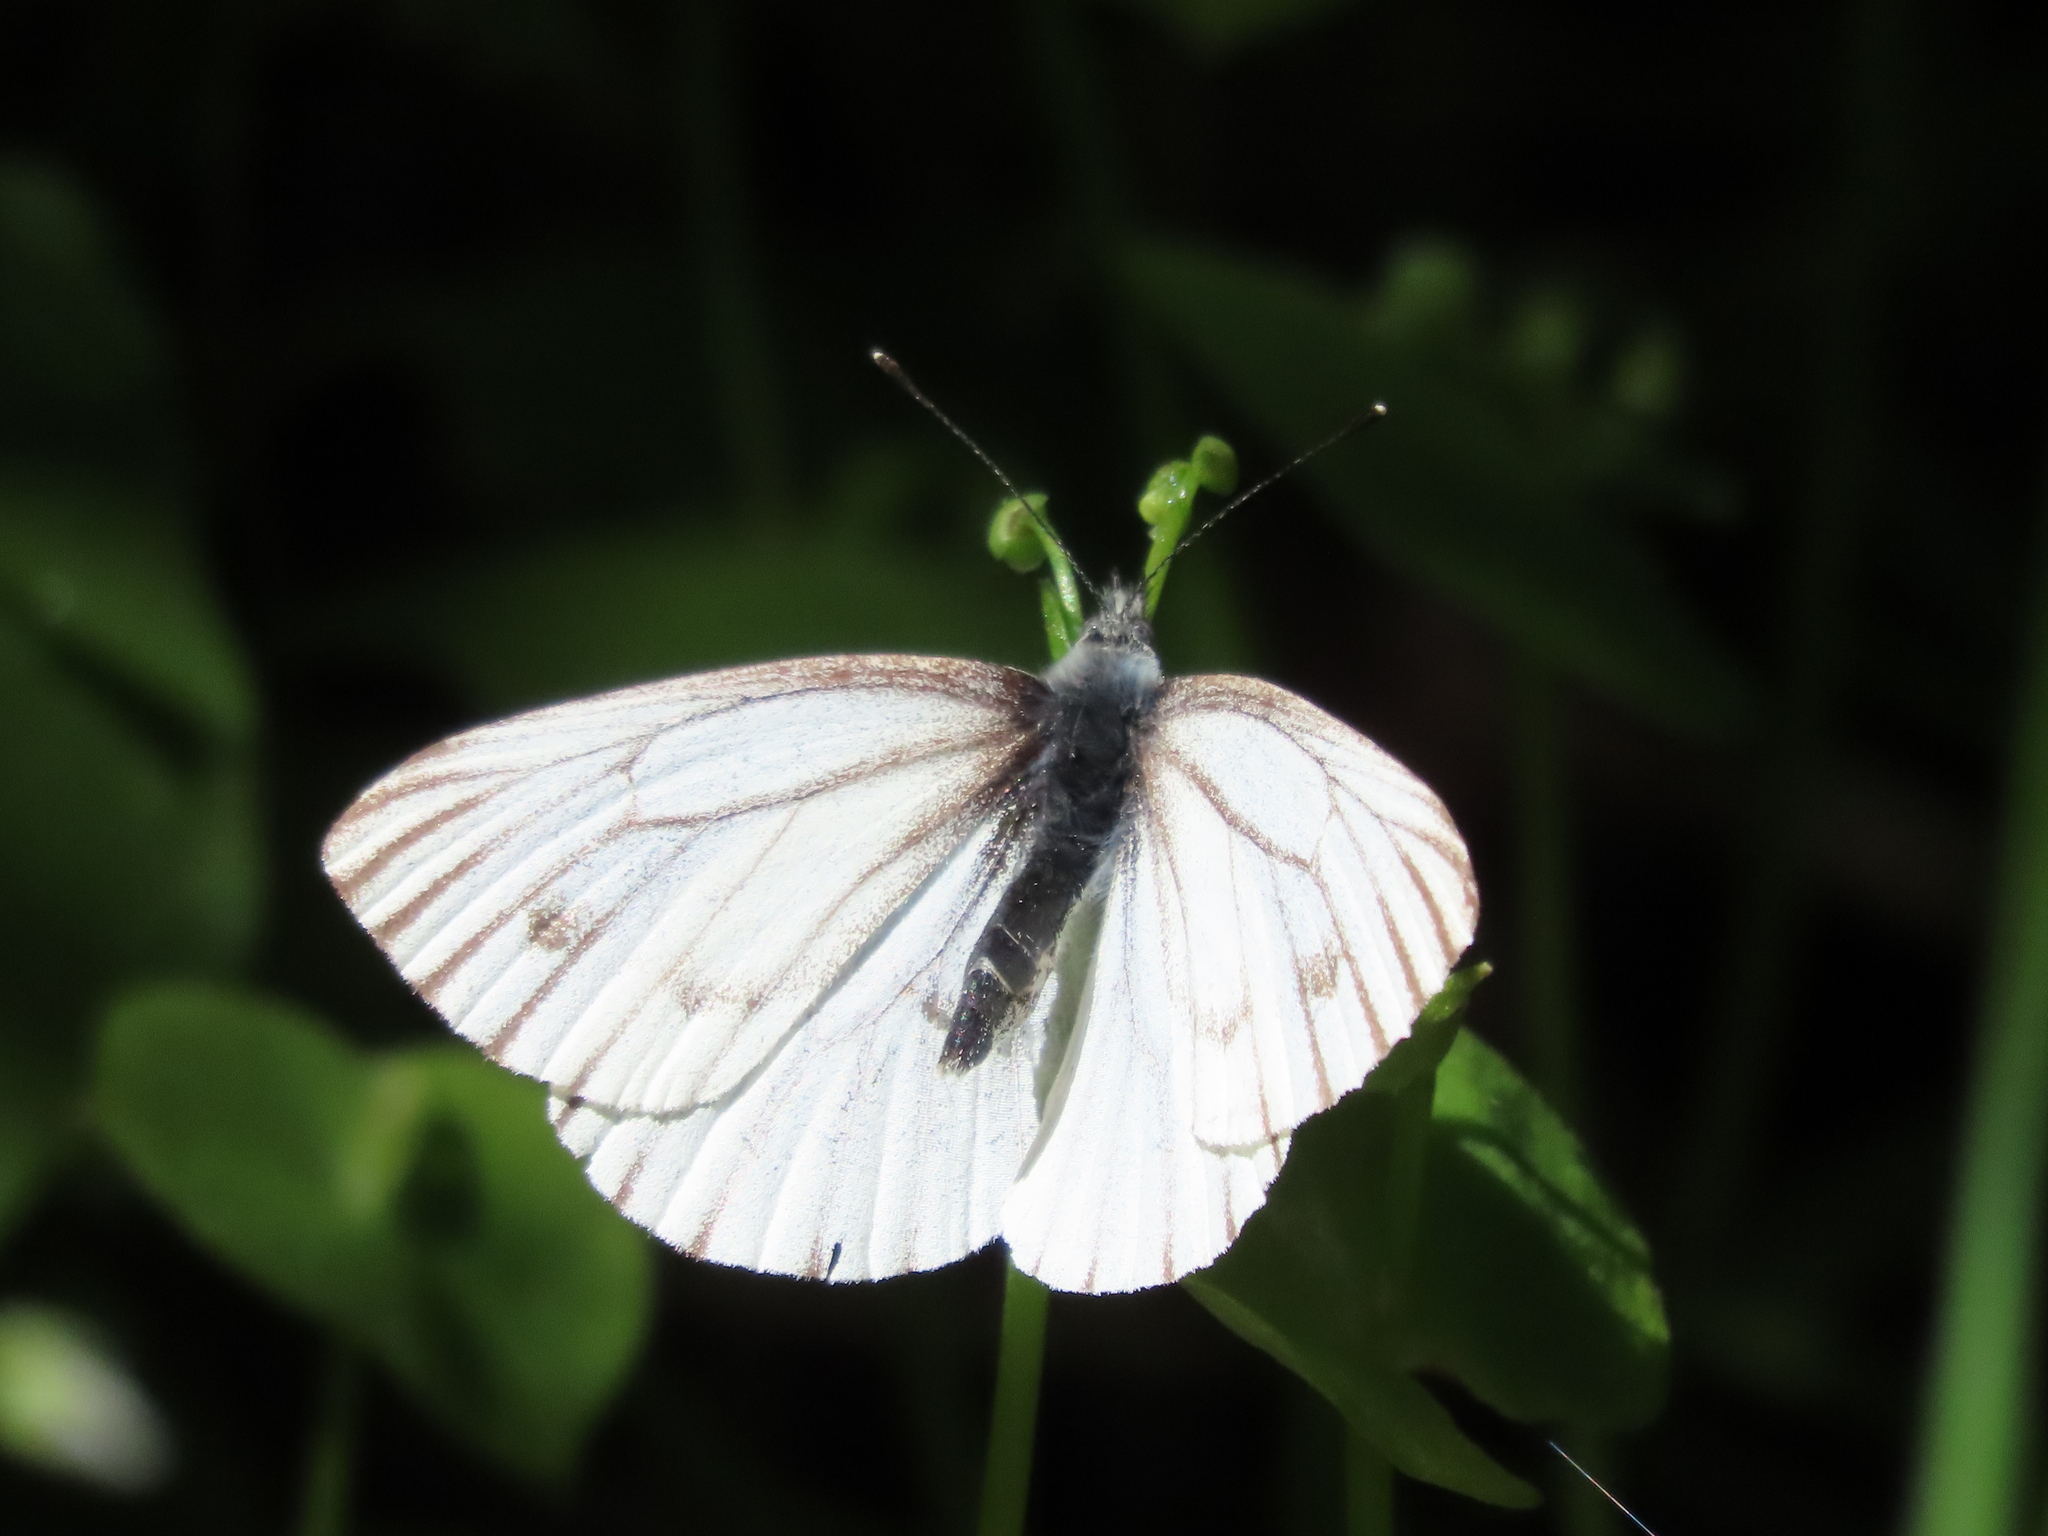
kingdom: Animalia
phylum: Arthropoda
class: Insecta
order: Lepidoptera
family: Pieridae
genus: Pieris
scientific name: Pieris marginalis
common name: Margined white
